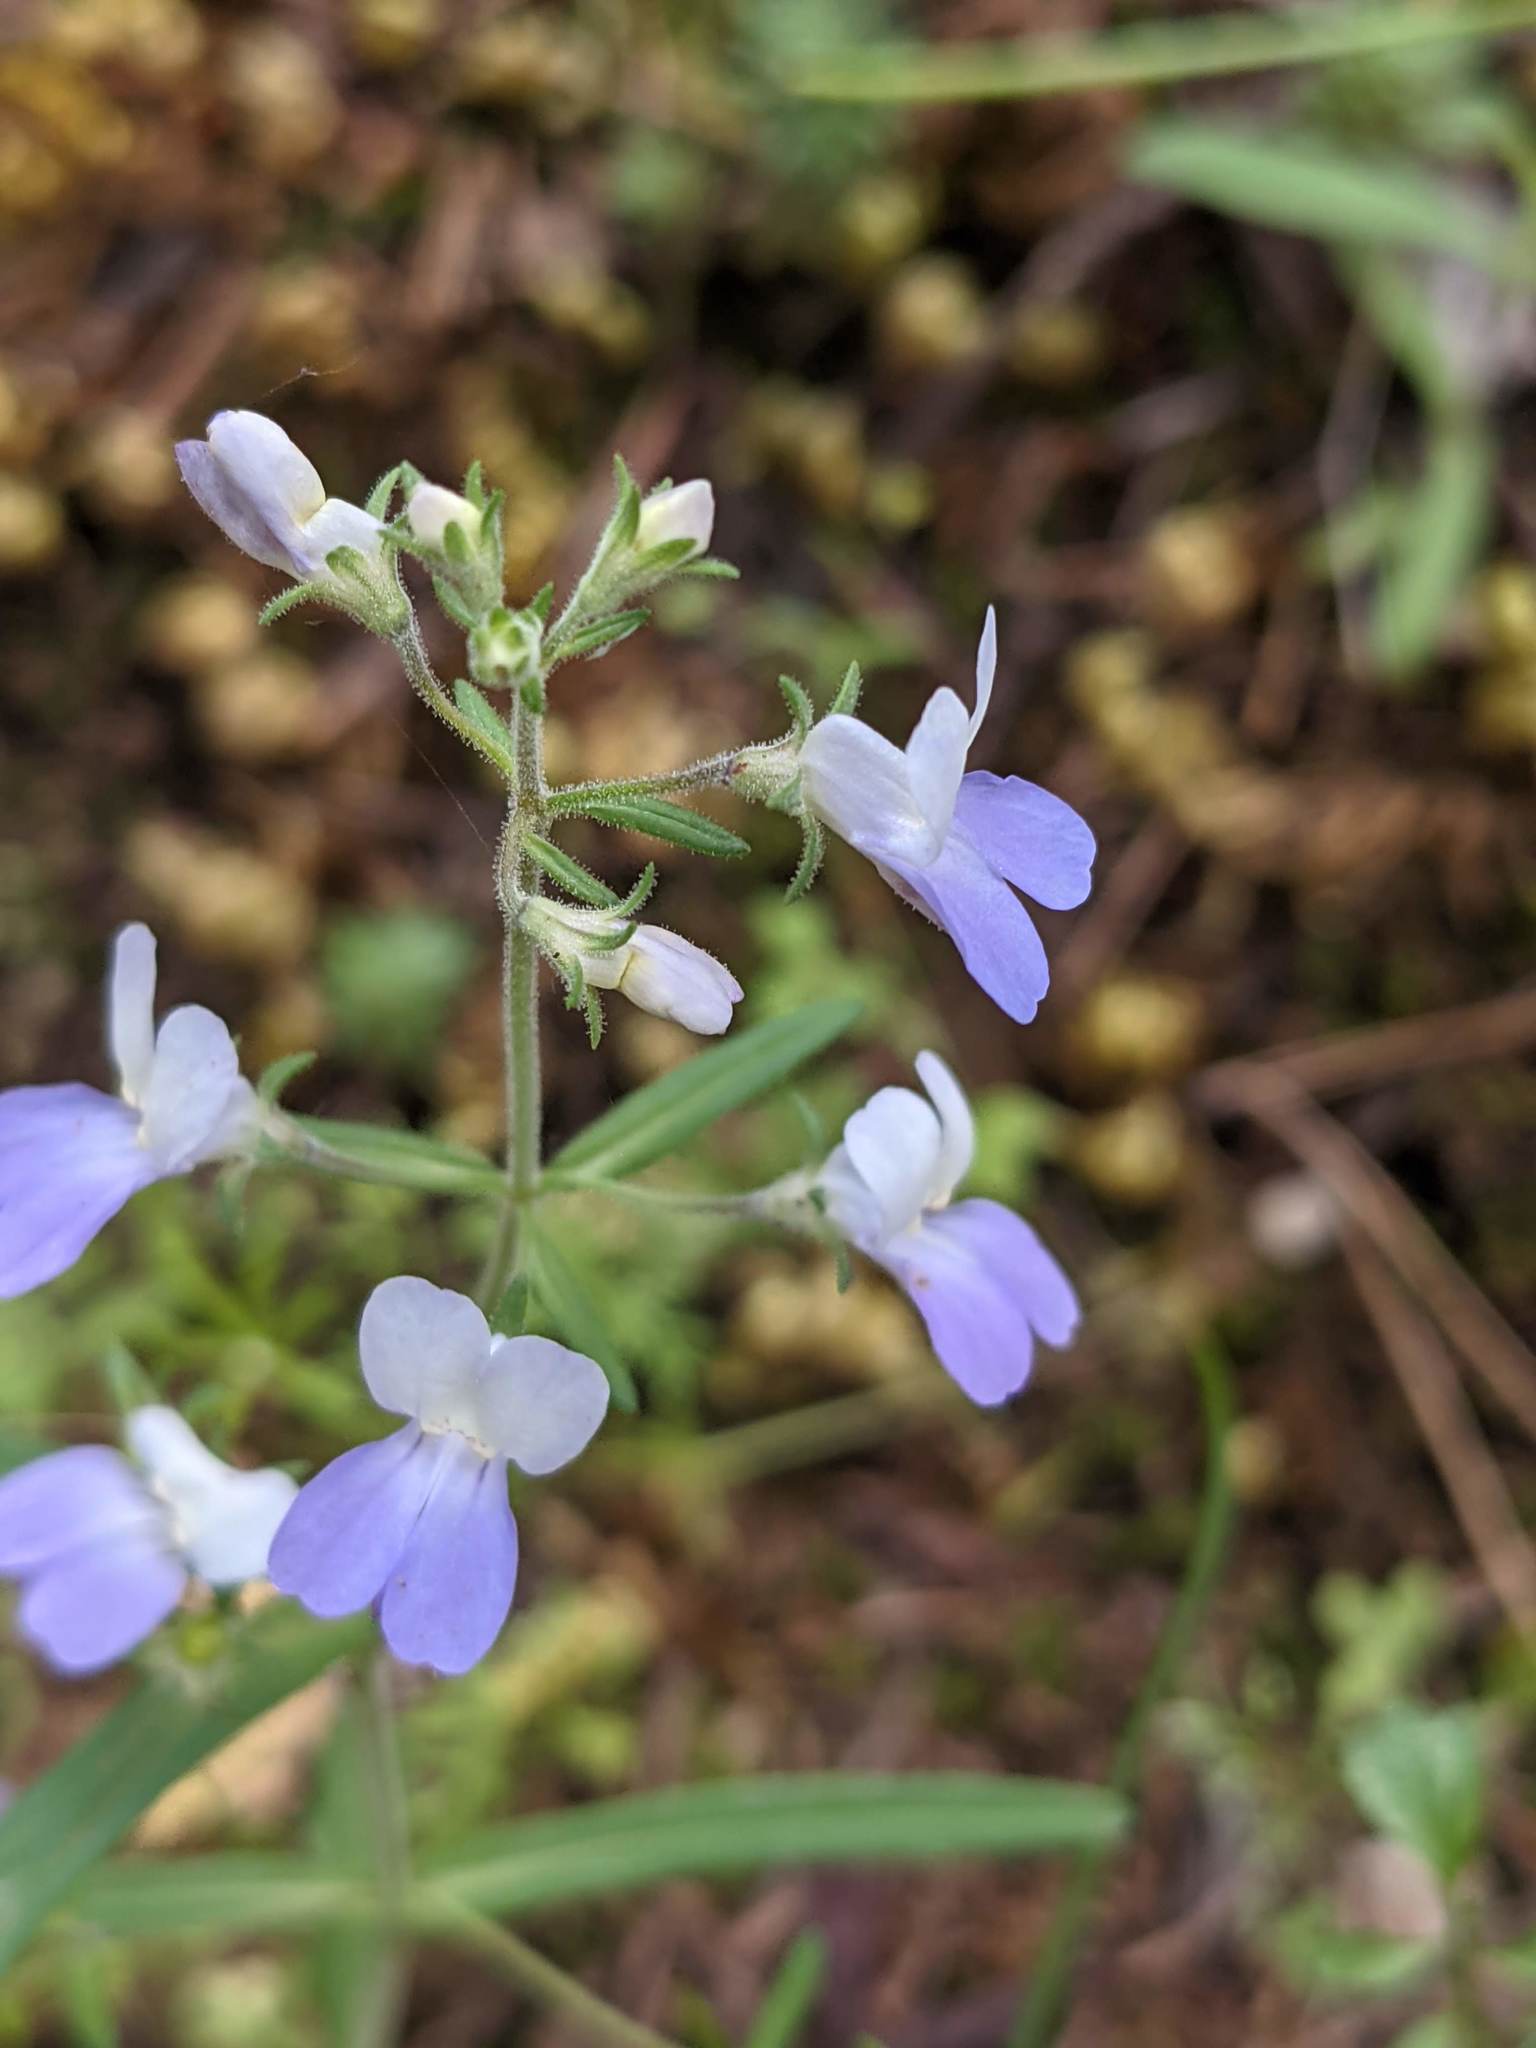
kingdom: Plantae
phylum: Tracheophyta
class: Magnoliopsida
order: Lamiales
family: Plantaginaceae
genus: Collinsia
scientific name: Collinsia linearis
